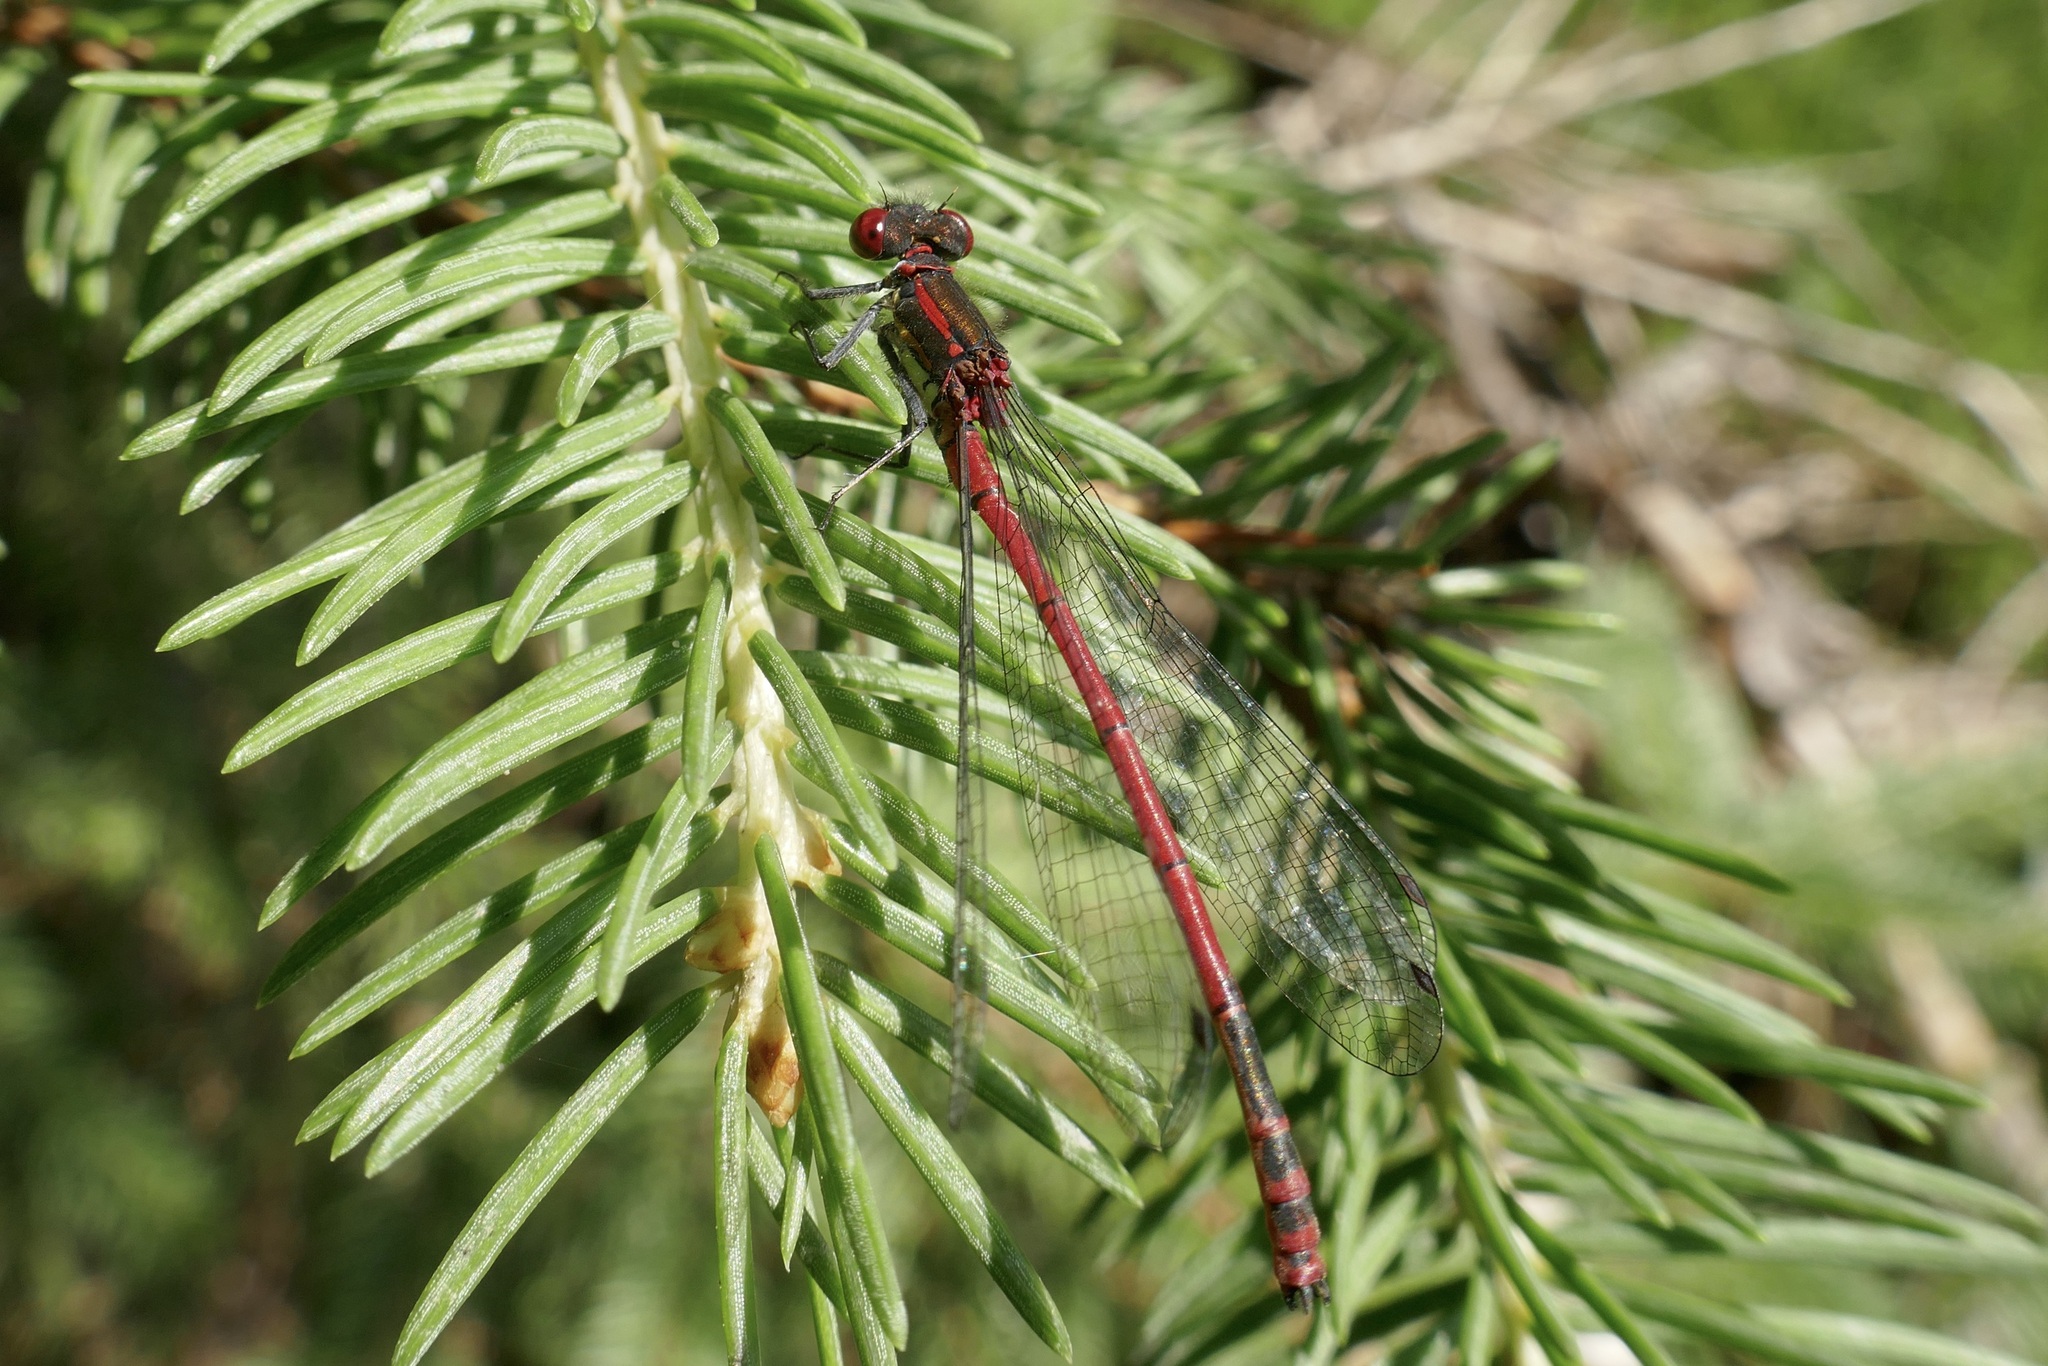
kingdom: Animalia
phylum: Arthropoda
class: Insecta
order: Odonata
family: Coenagrionidae
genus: Pyrrhosoma
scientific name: Pyrrhosoma nymphula
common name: Large red damsel
